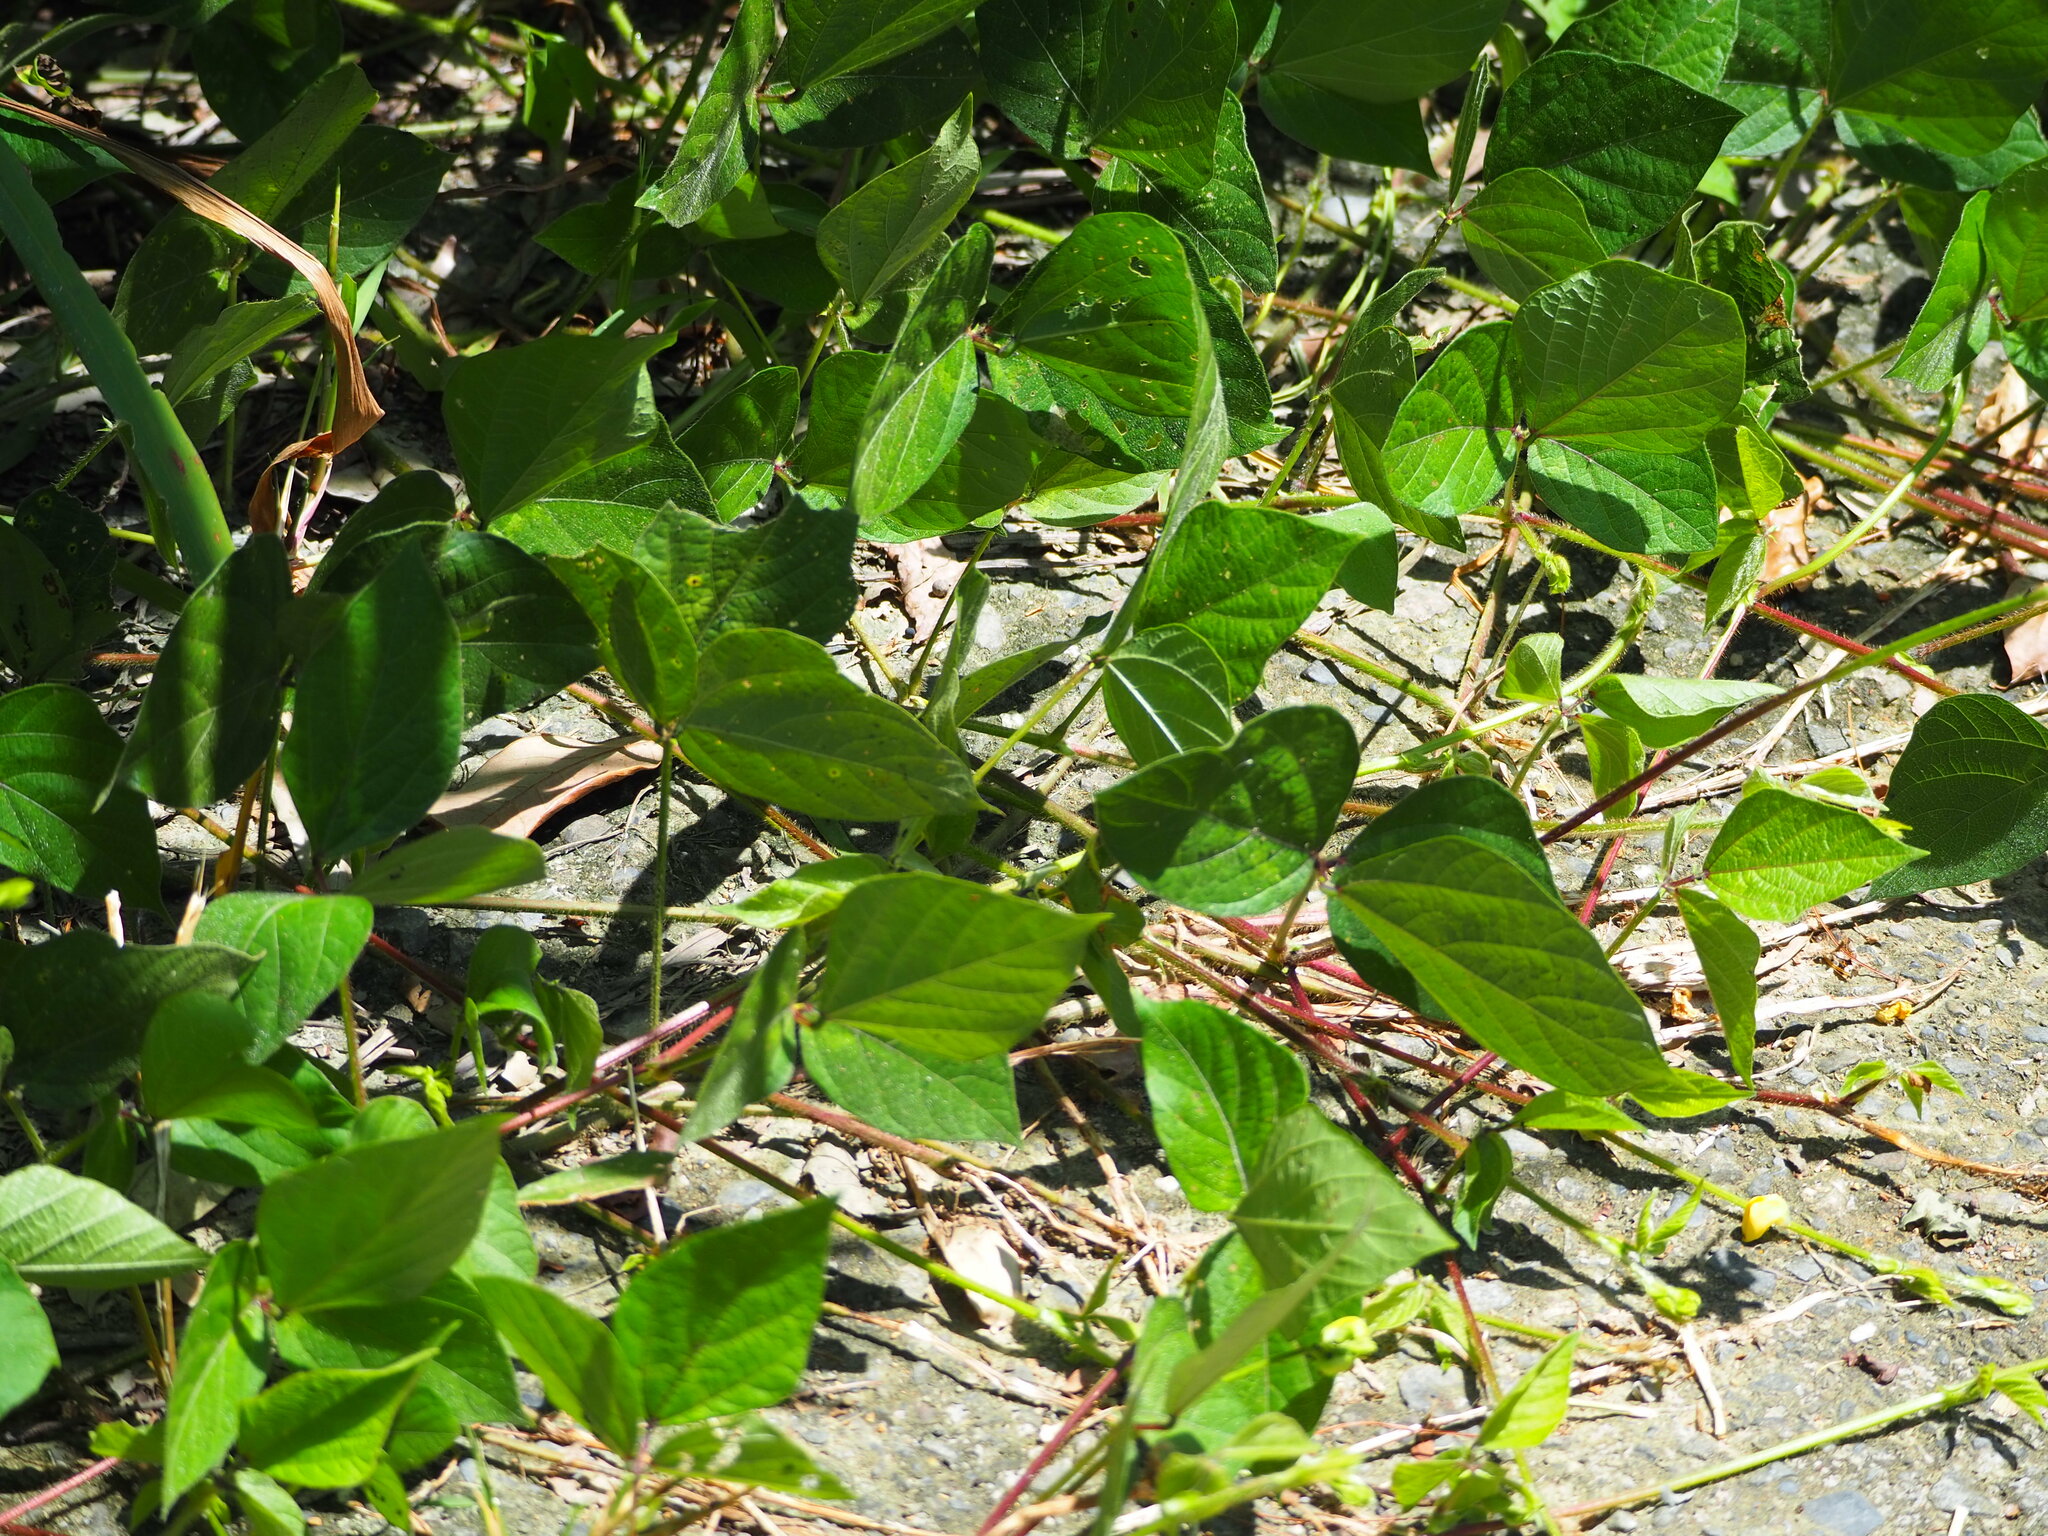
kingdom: Plantae
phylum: Tracheophyta
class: Magnoliopsida
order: Fabales
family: Fabaceae
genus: Vigna
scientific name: Vigna reflexopilosa
